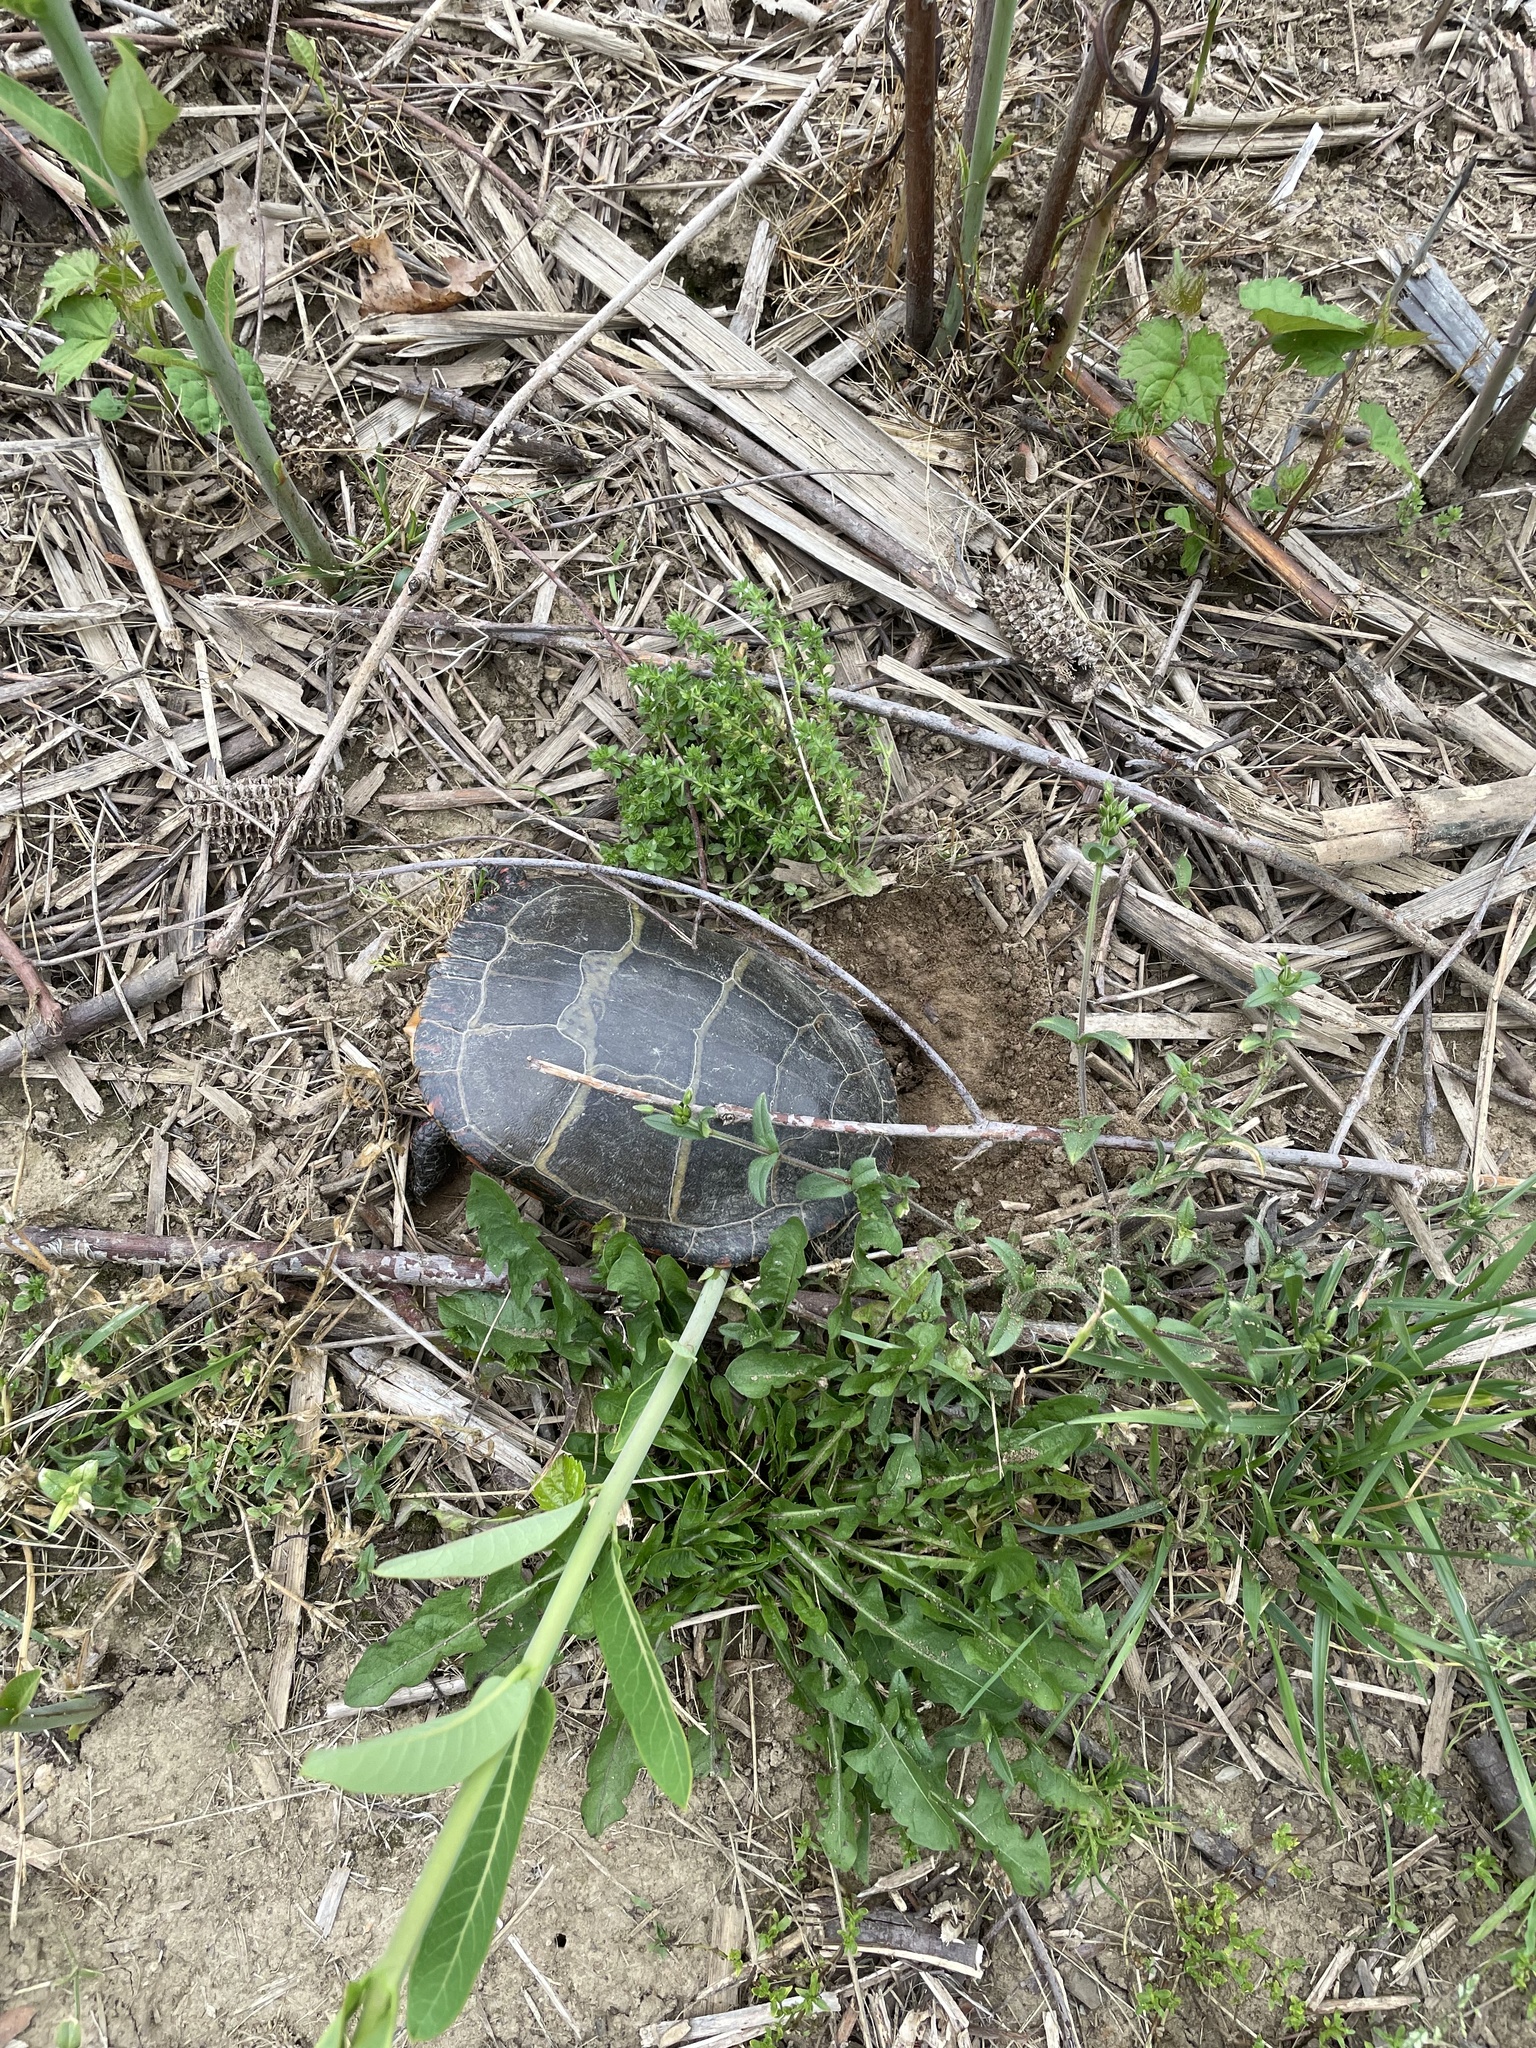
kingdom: Animalia
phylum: Chordata
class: Testudines
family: Emydidae
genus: Chrysemys
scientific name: Chrysemys picta
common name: Painted turtle
